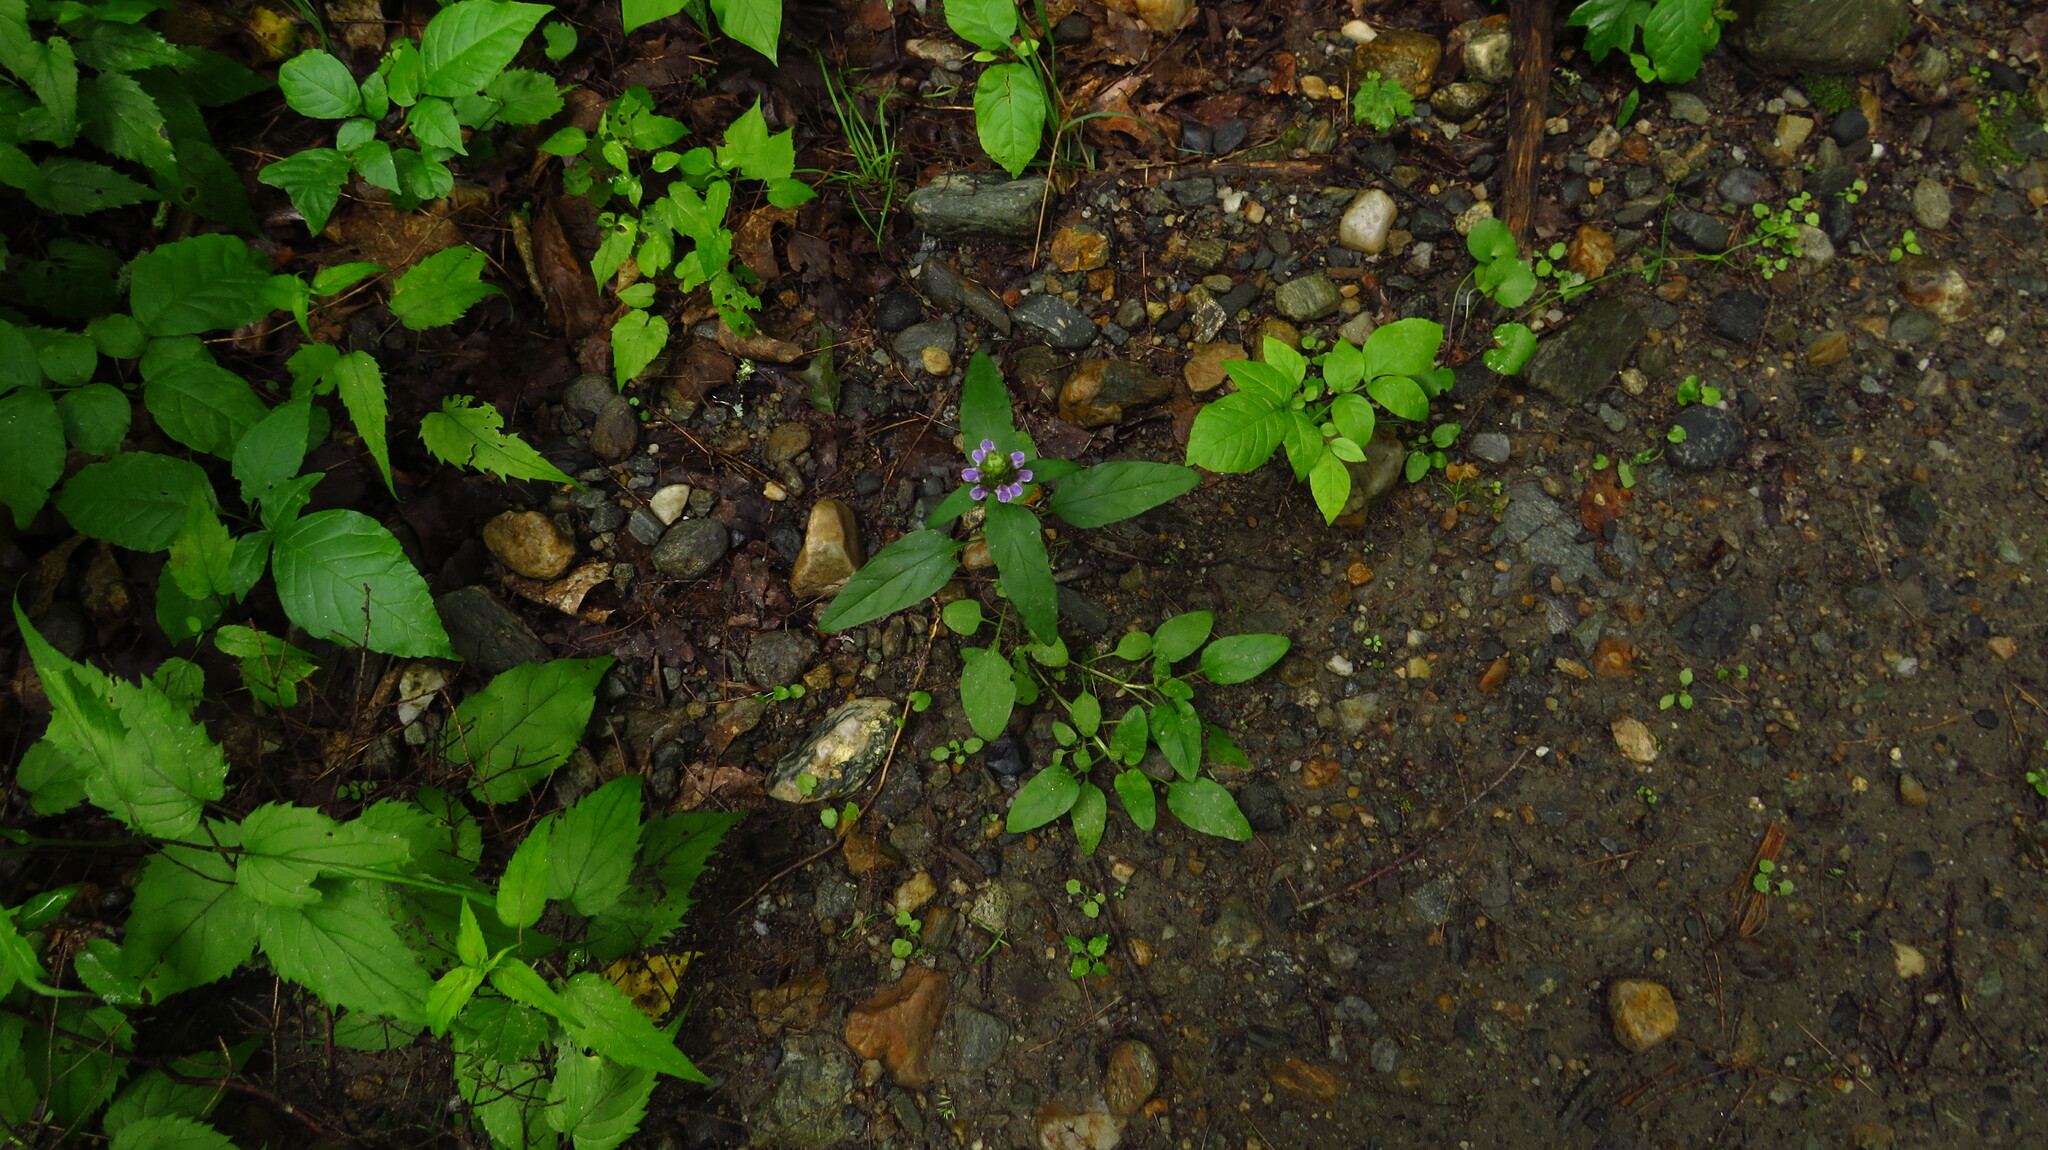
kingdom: Plantae
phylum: Tracheophyta
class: Magnoliopsida
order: Lamiales
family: Lamiaceae
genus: Prunella
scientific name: Prunella vulgaris
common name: Heal-all
